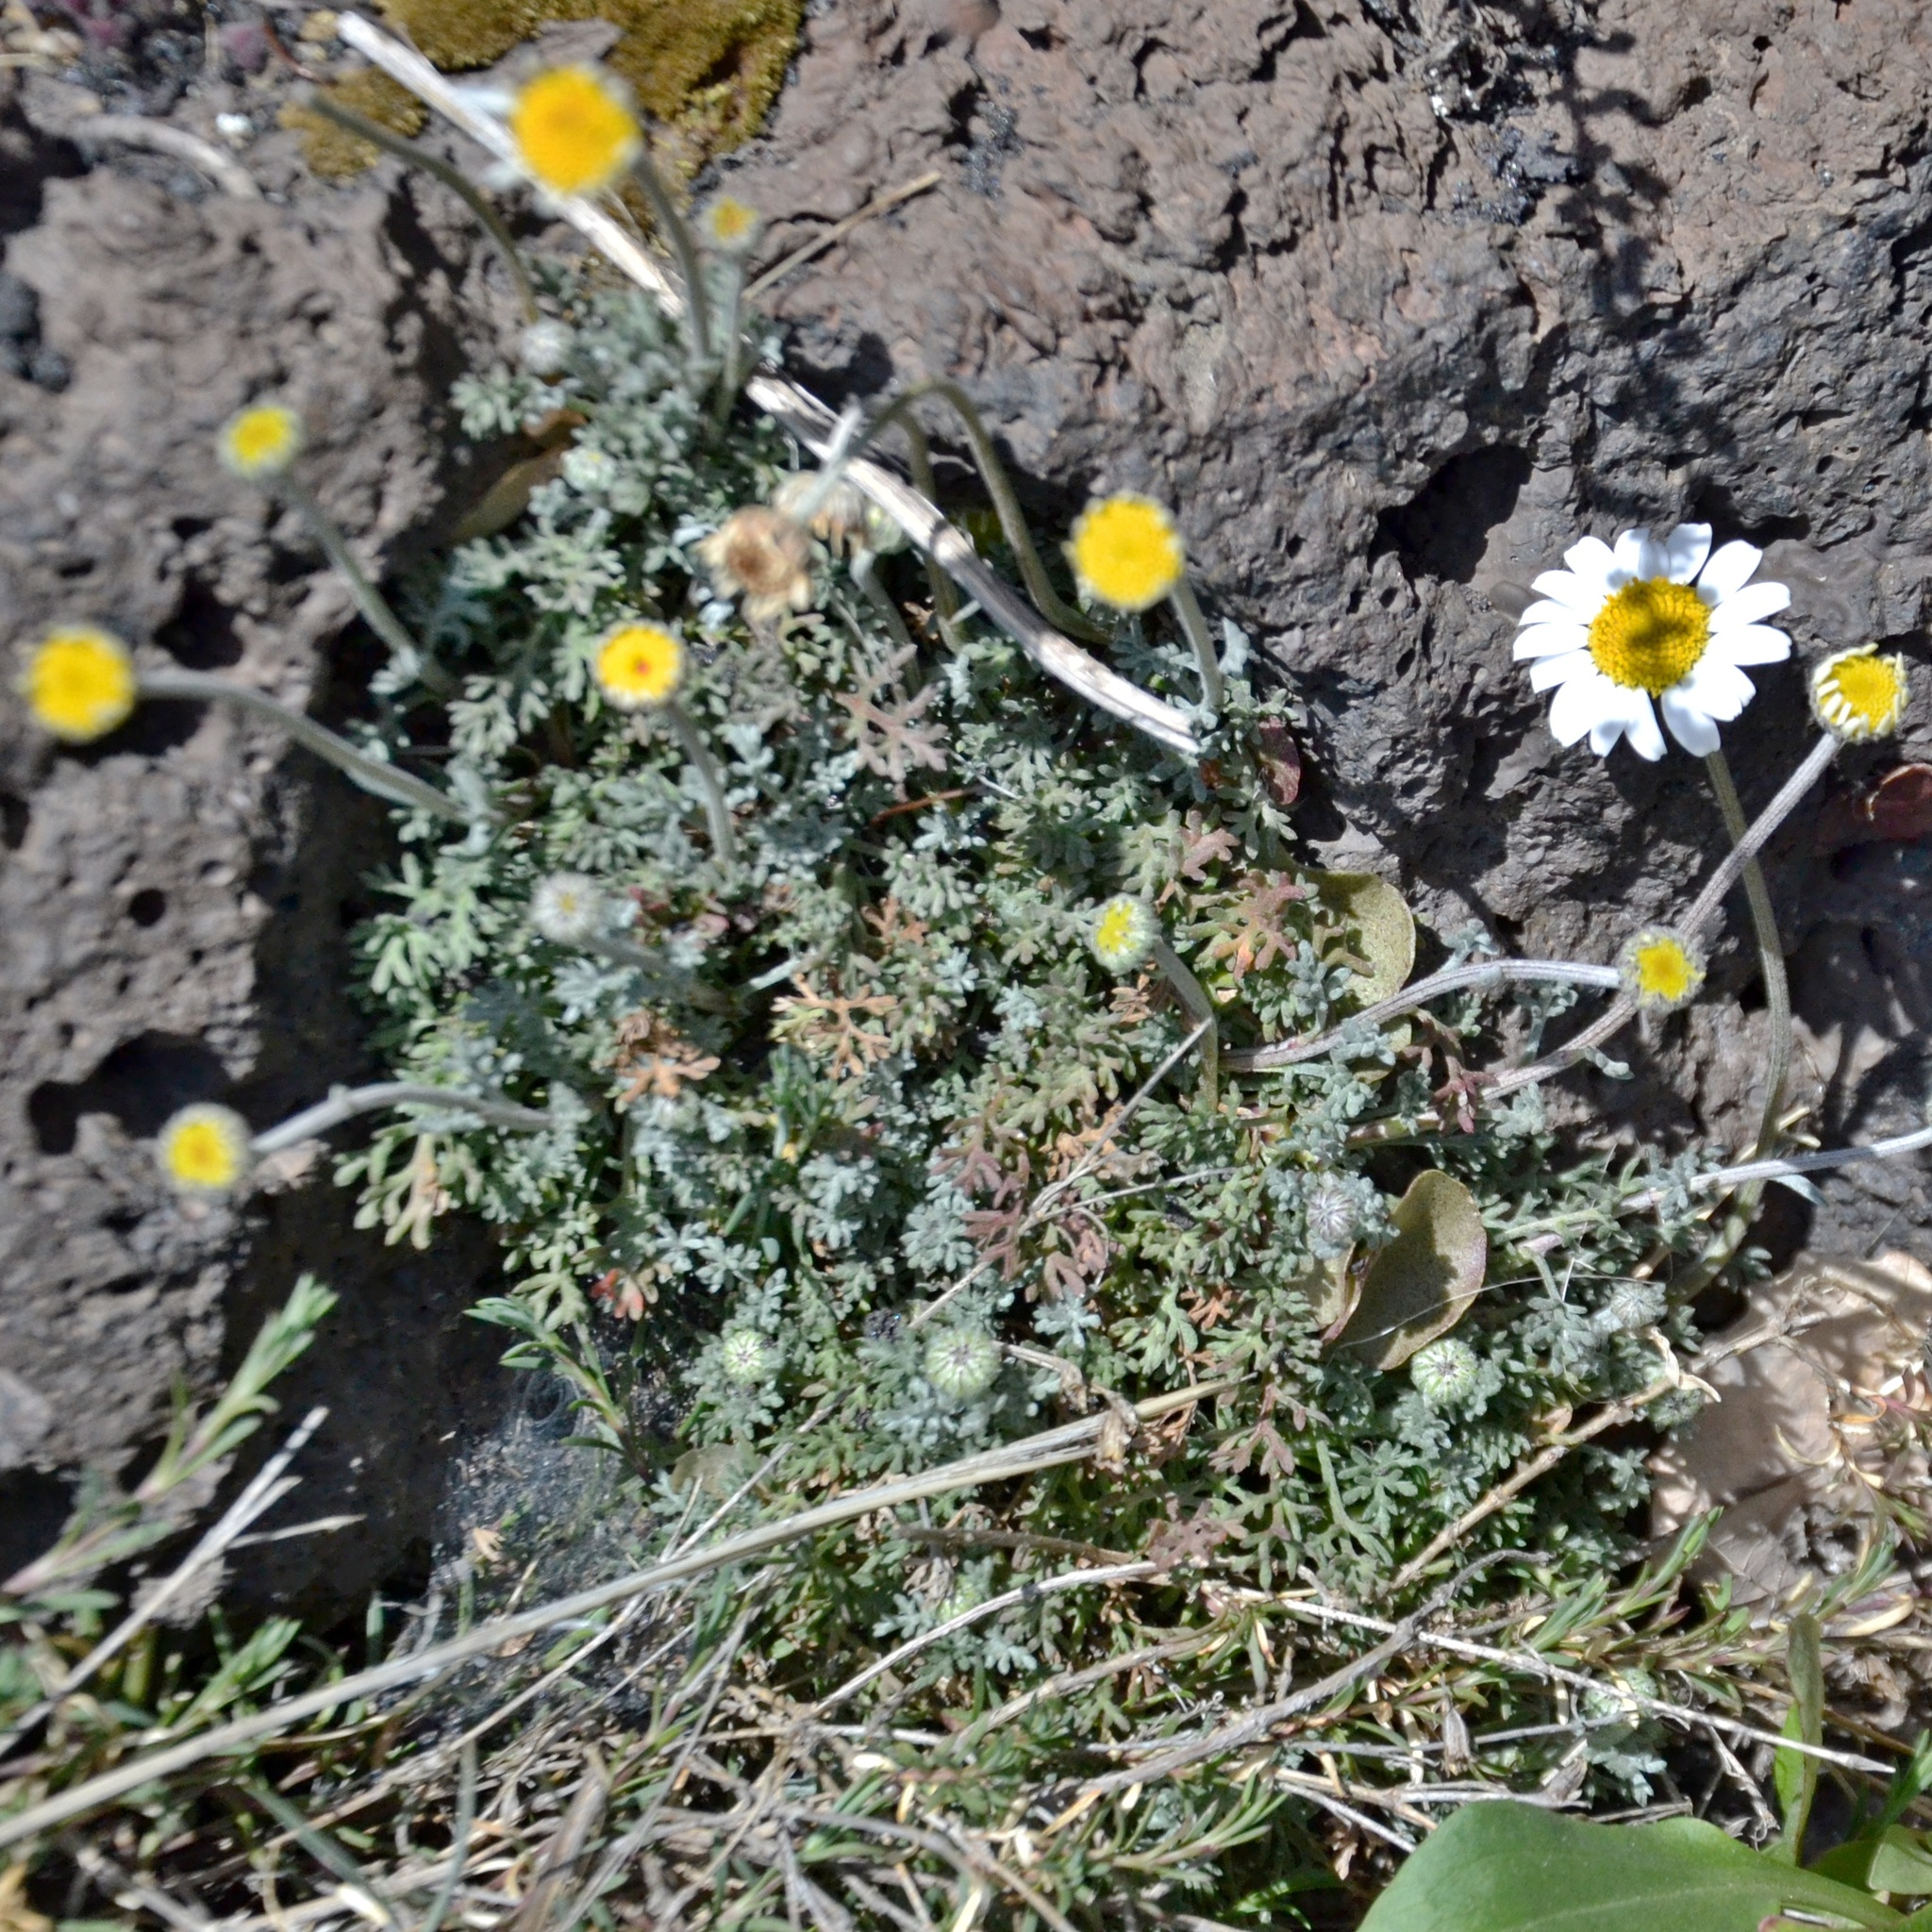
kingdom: Plantae
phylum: Tracheophyta
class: Magnoliopsida
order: Asterales
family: Asteraceae
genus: Anthemis
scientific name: Anthemis aetnensis
